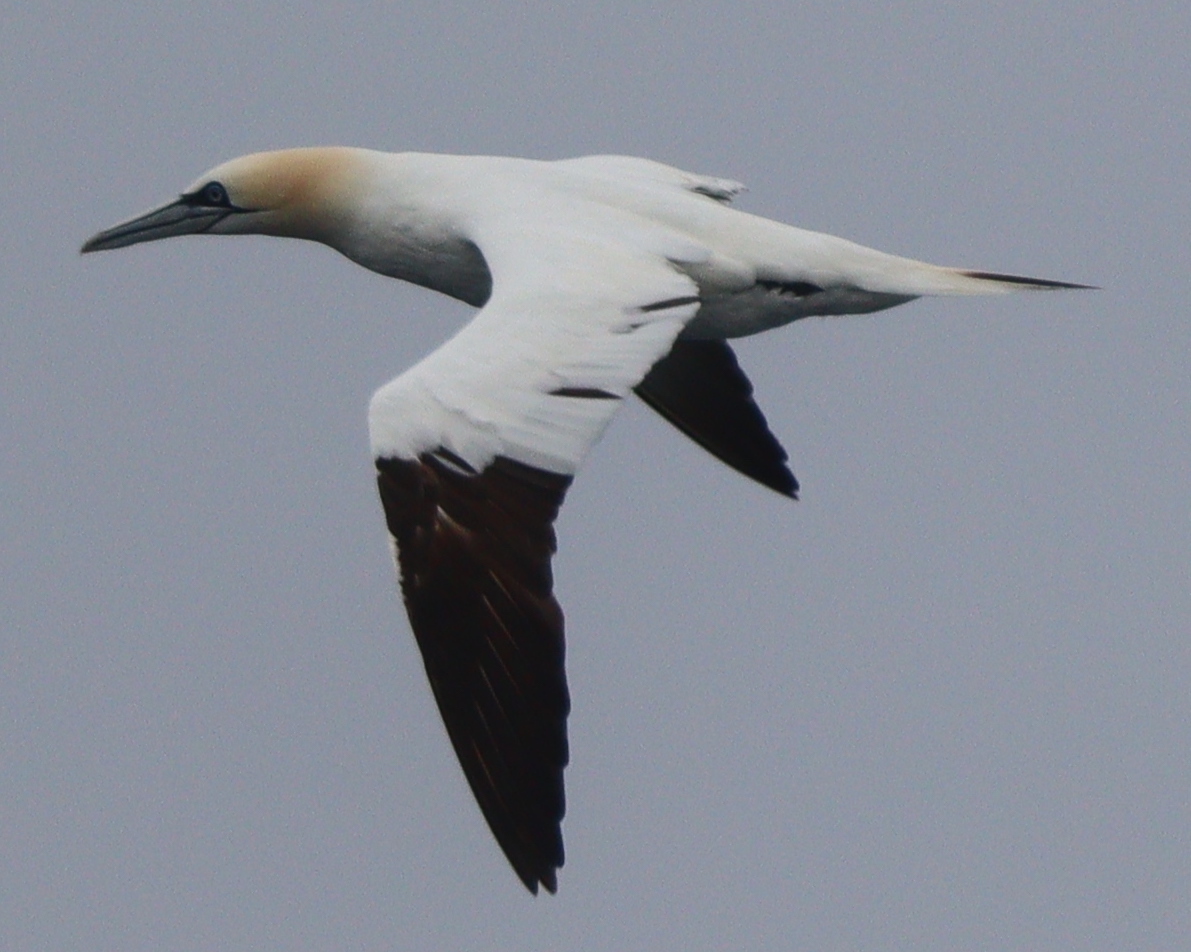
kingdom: Animalia
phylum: Chordata
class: Aves
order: Suliformes
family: Sulidae
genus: Morus
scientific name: Morus bassanus
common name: Northern gannet
